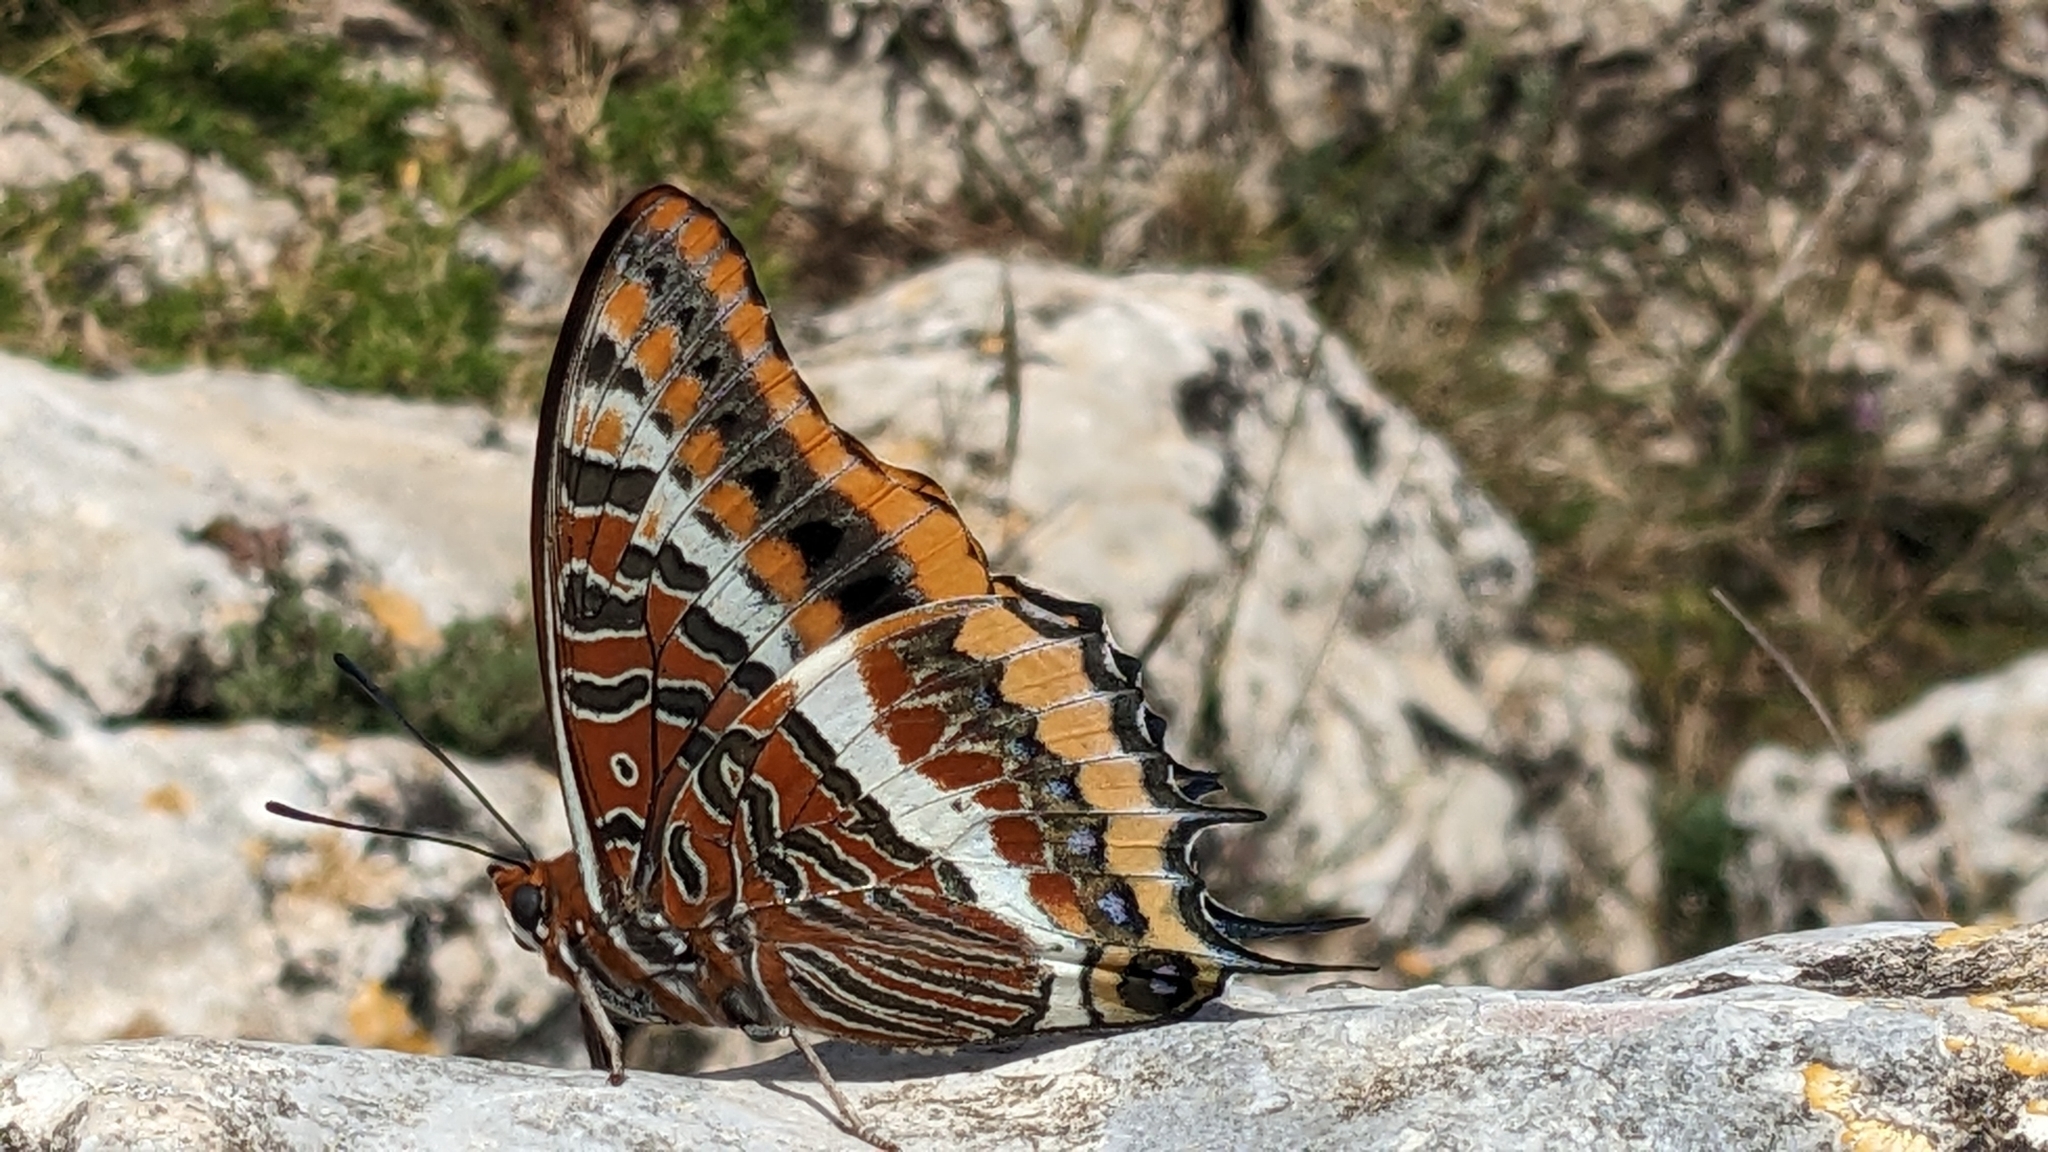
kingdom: Animalia
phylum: Arthropoda
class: Insecta
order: Lepidoptera
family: Nymphalidae
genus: Charaxes
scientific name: Charaxes jasius
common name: Two tailed pasha
